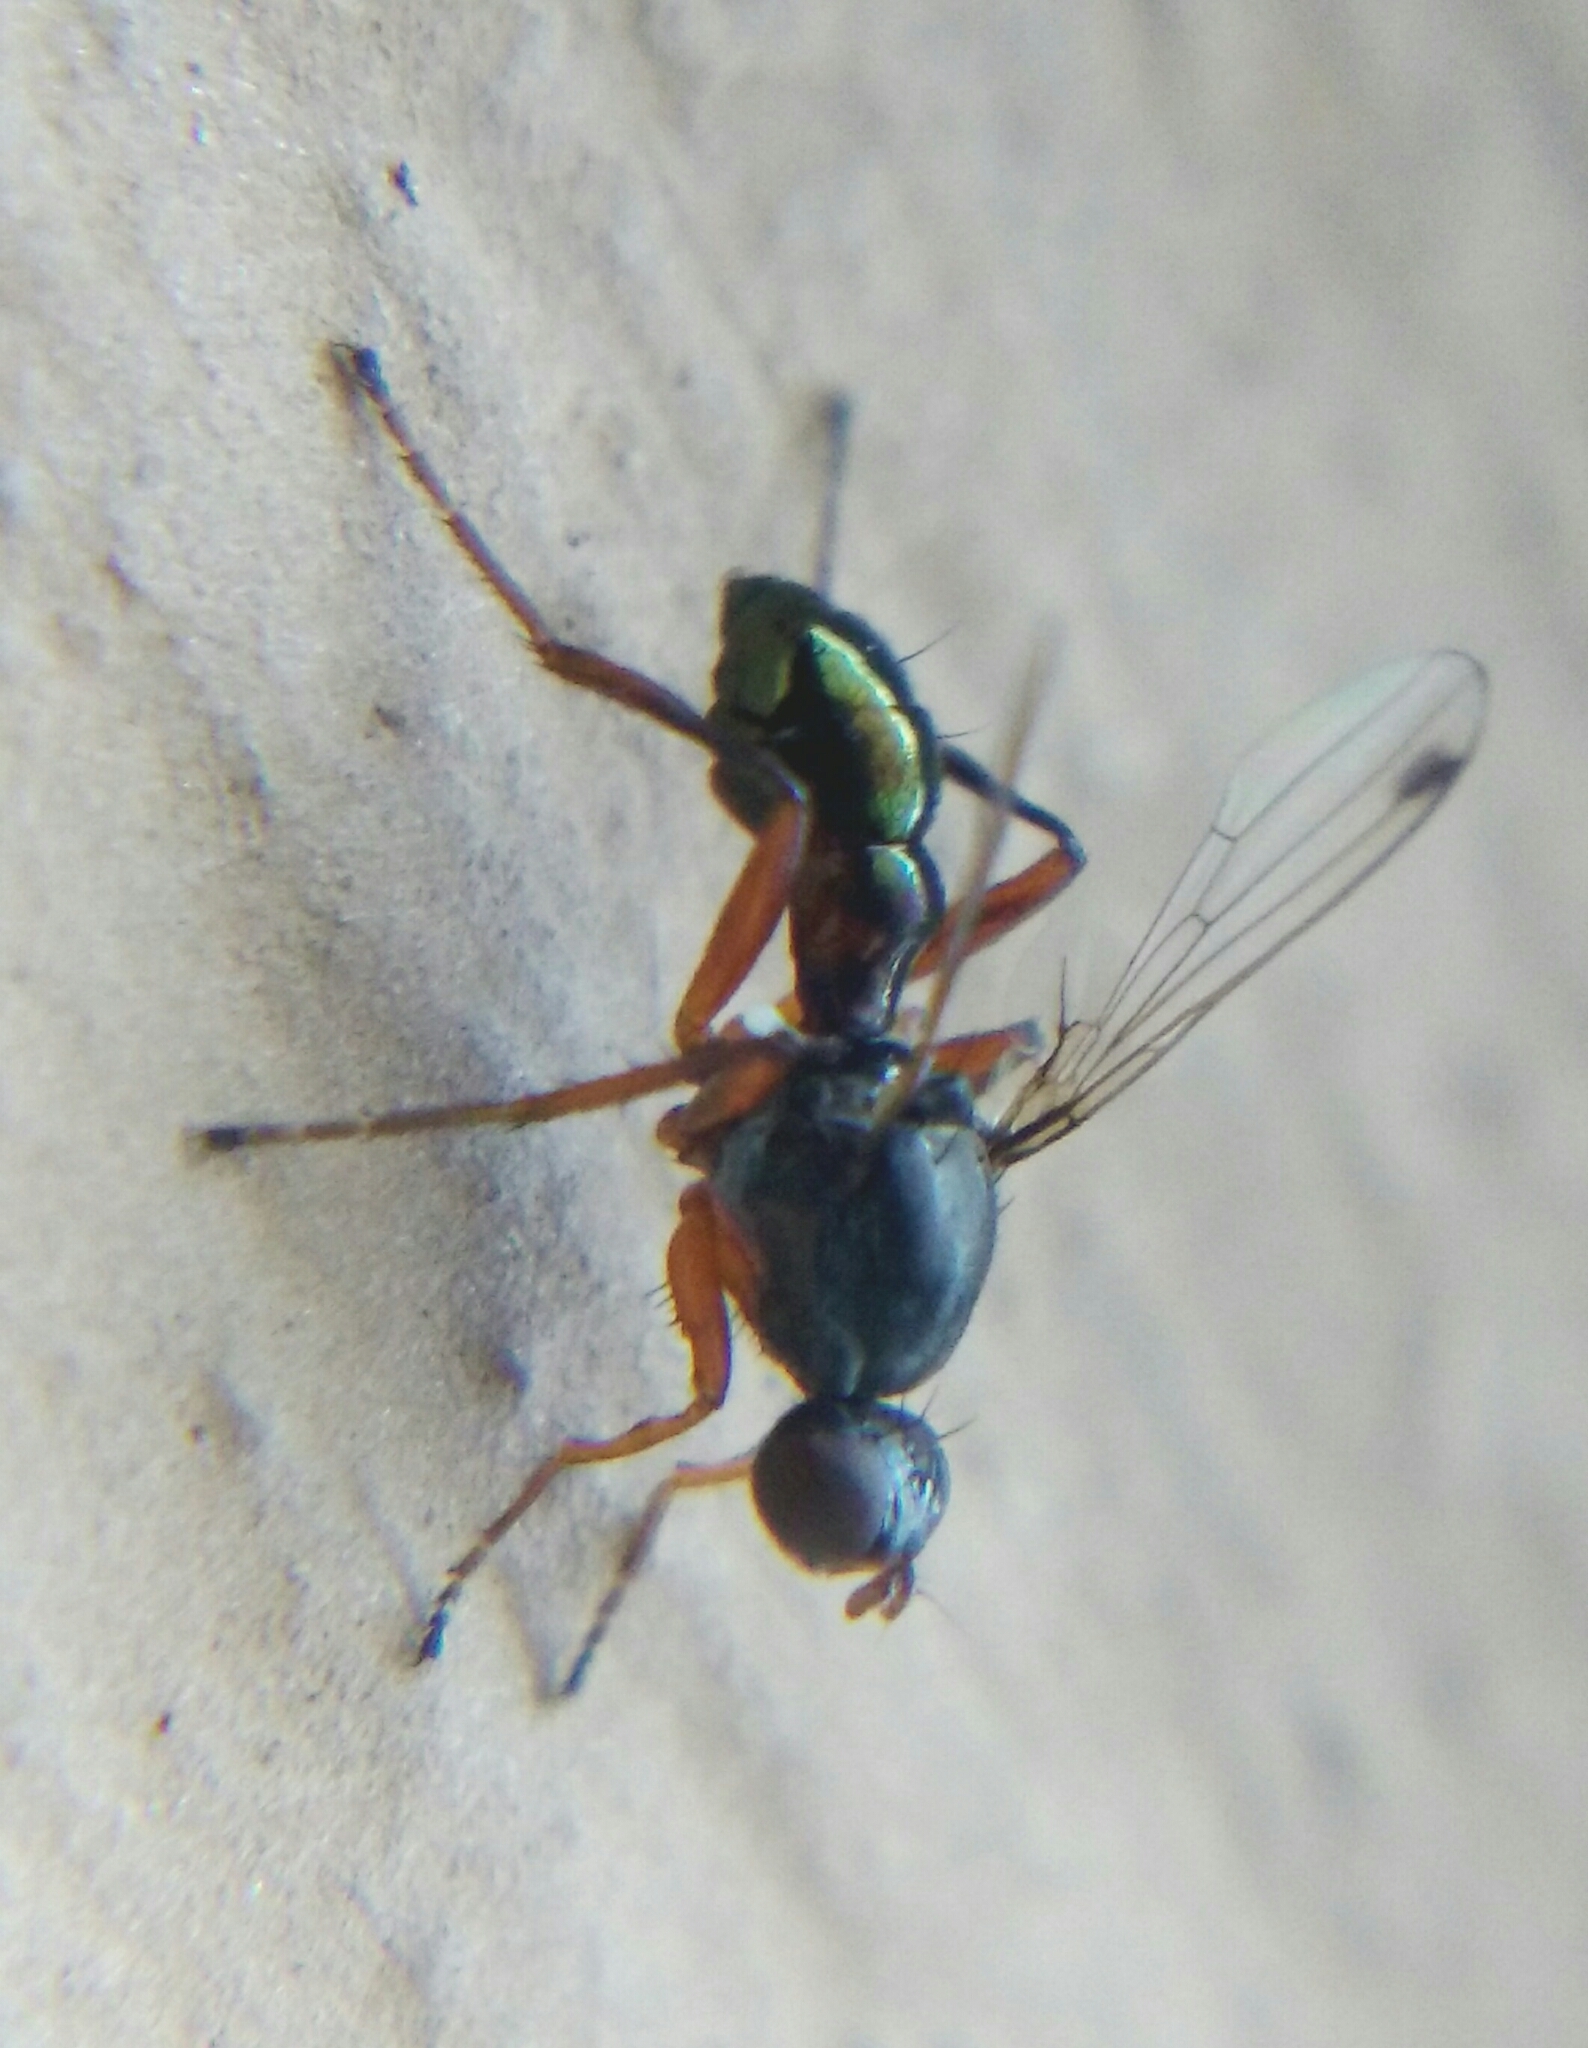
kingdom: Animalia
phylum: Arthropoda
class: Insecta
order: Diptera
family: Sepsidae
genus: Sepsis
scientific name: Sepsis punctum
